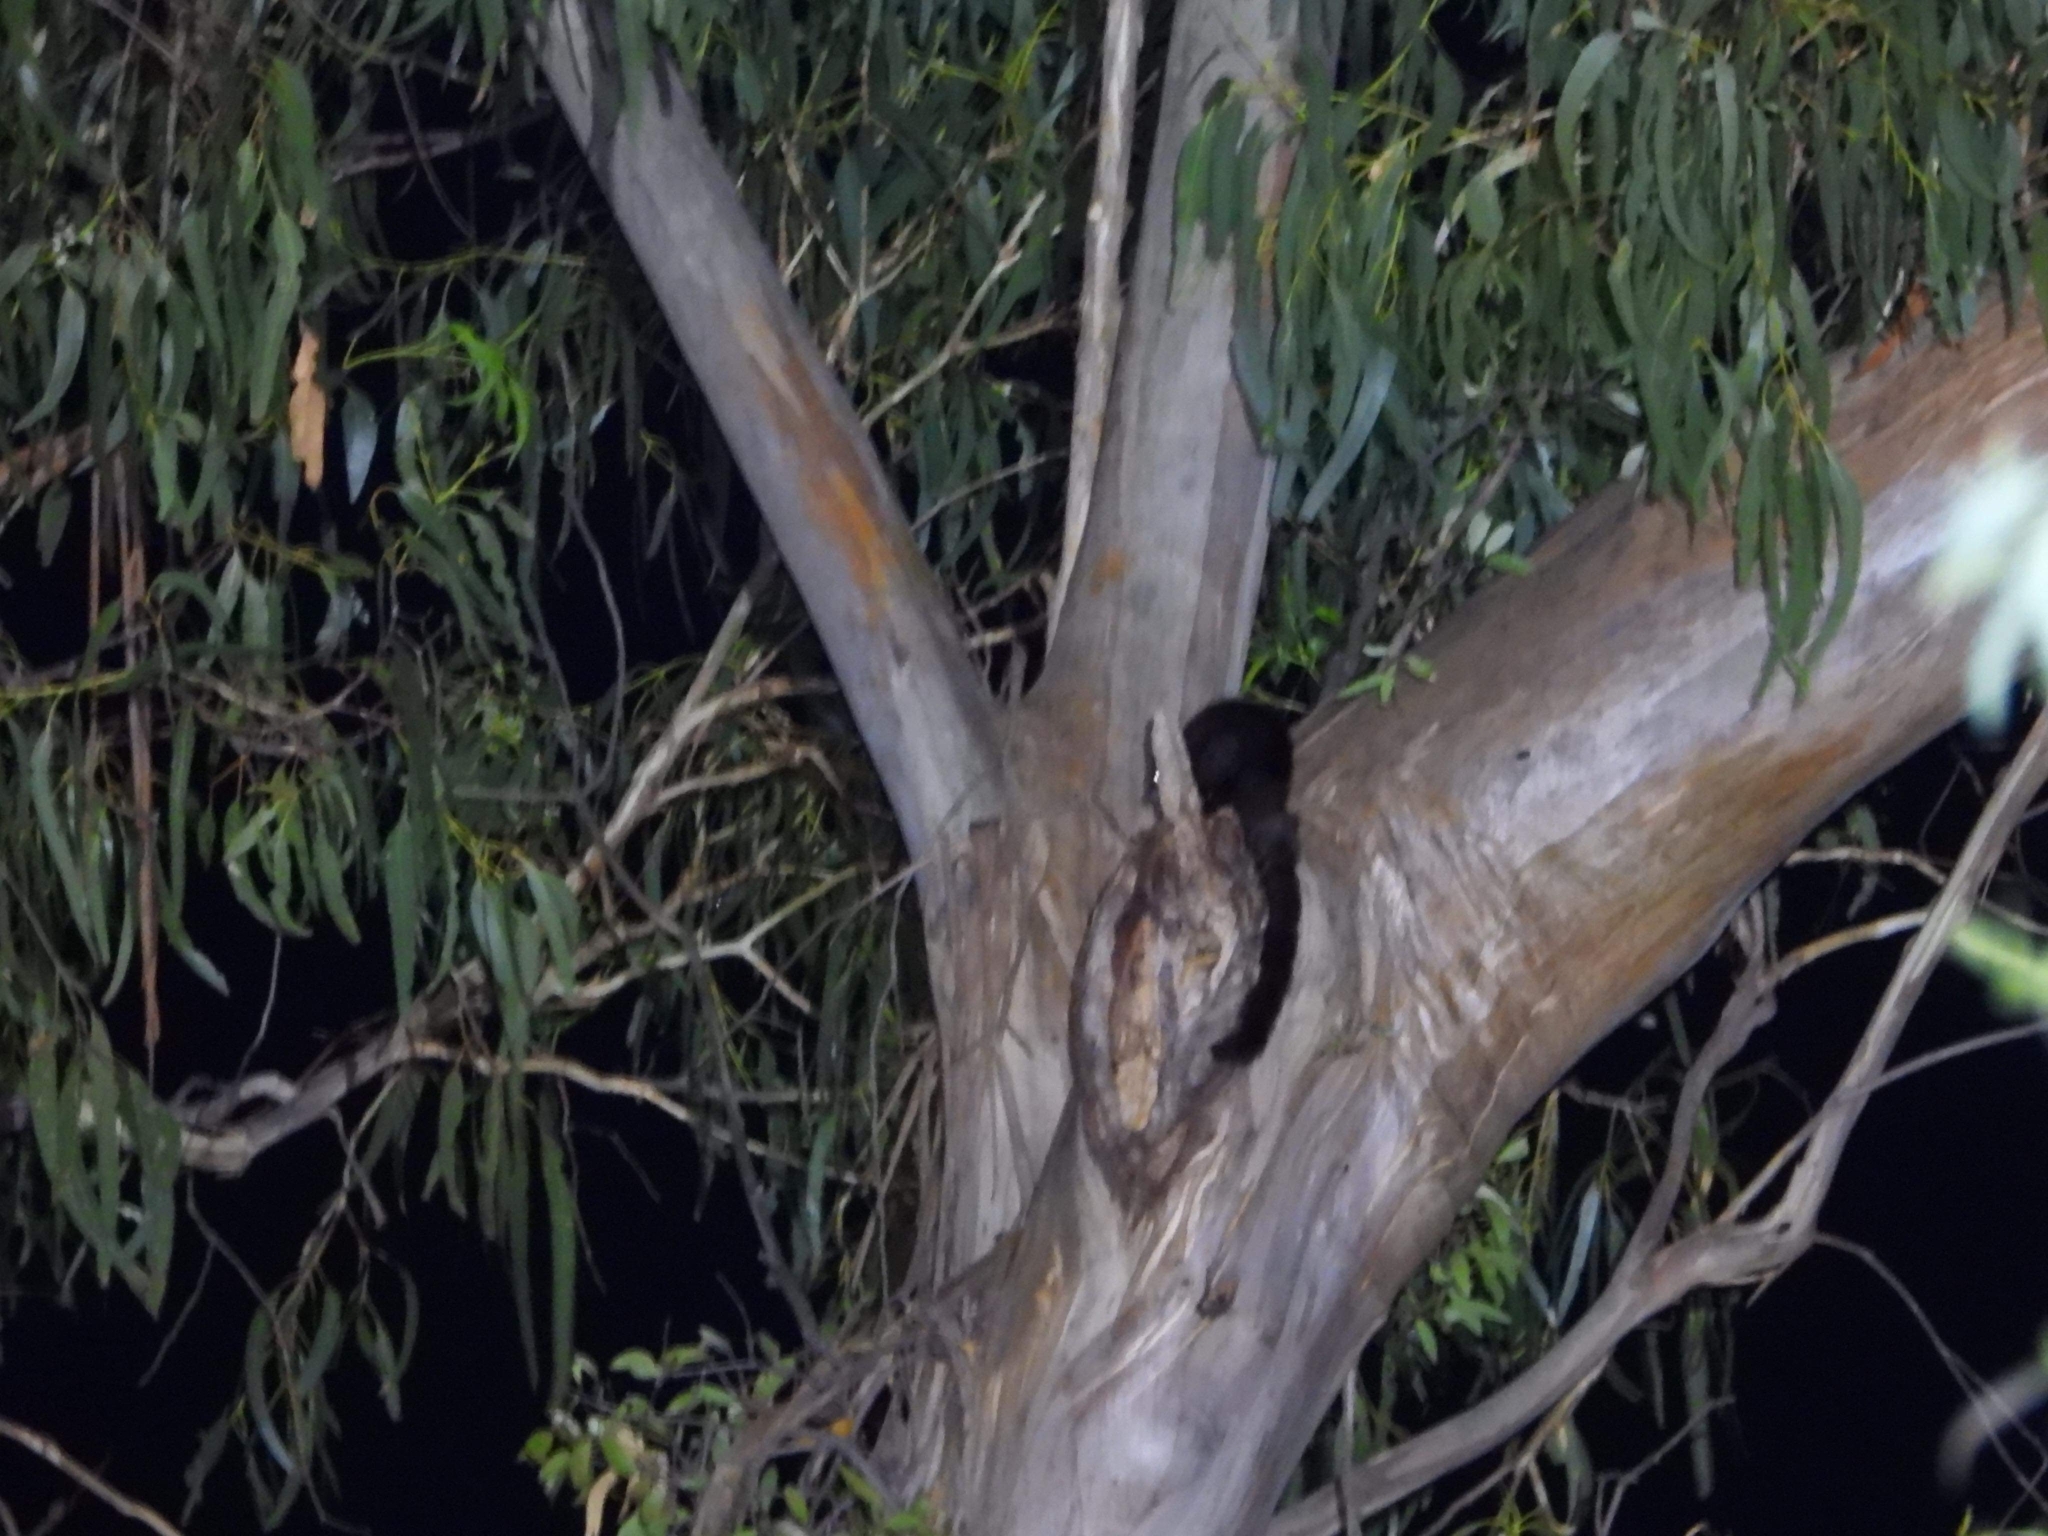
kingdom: Animalia
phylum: Chordata
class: Mammalia
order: Diprotodontia
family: Pseudocheiridae
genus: Petauroides
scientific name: Petauroides volans
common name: Greater glider
